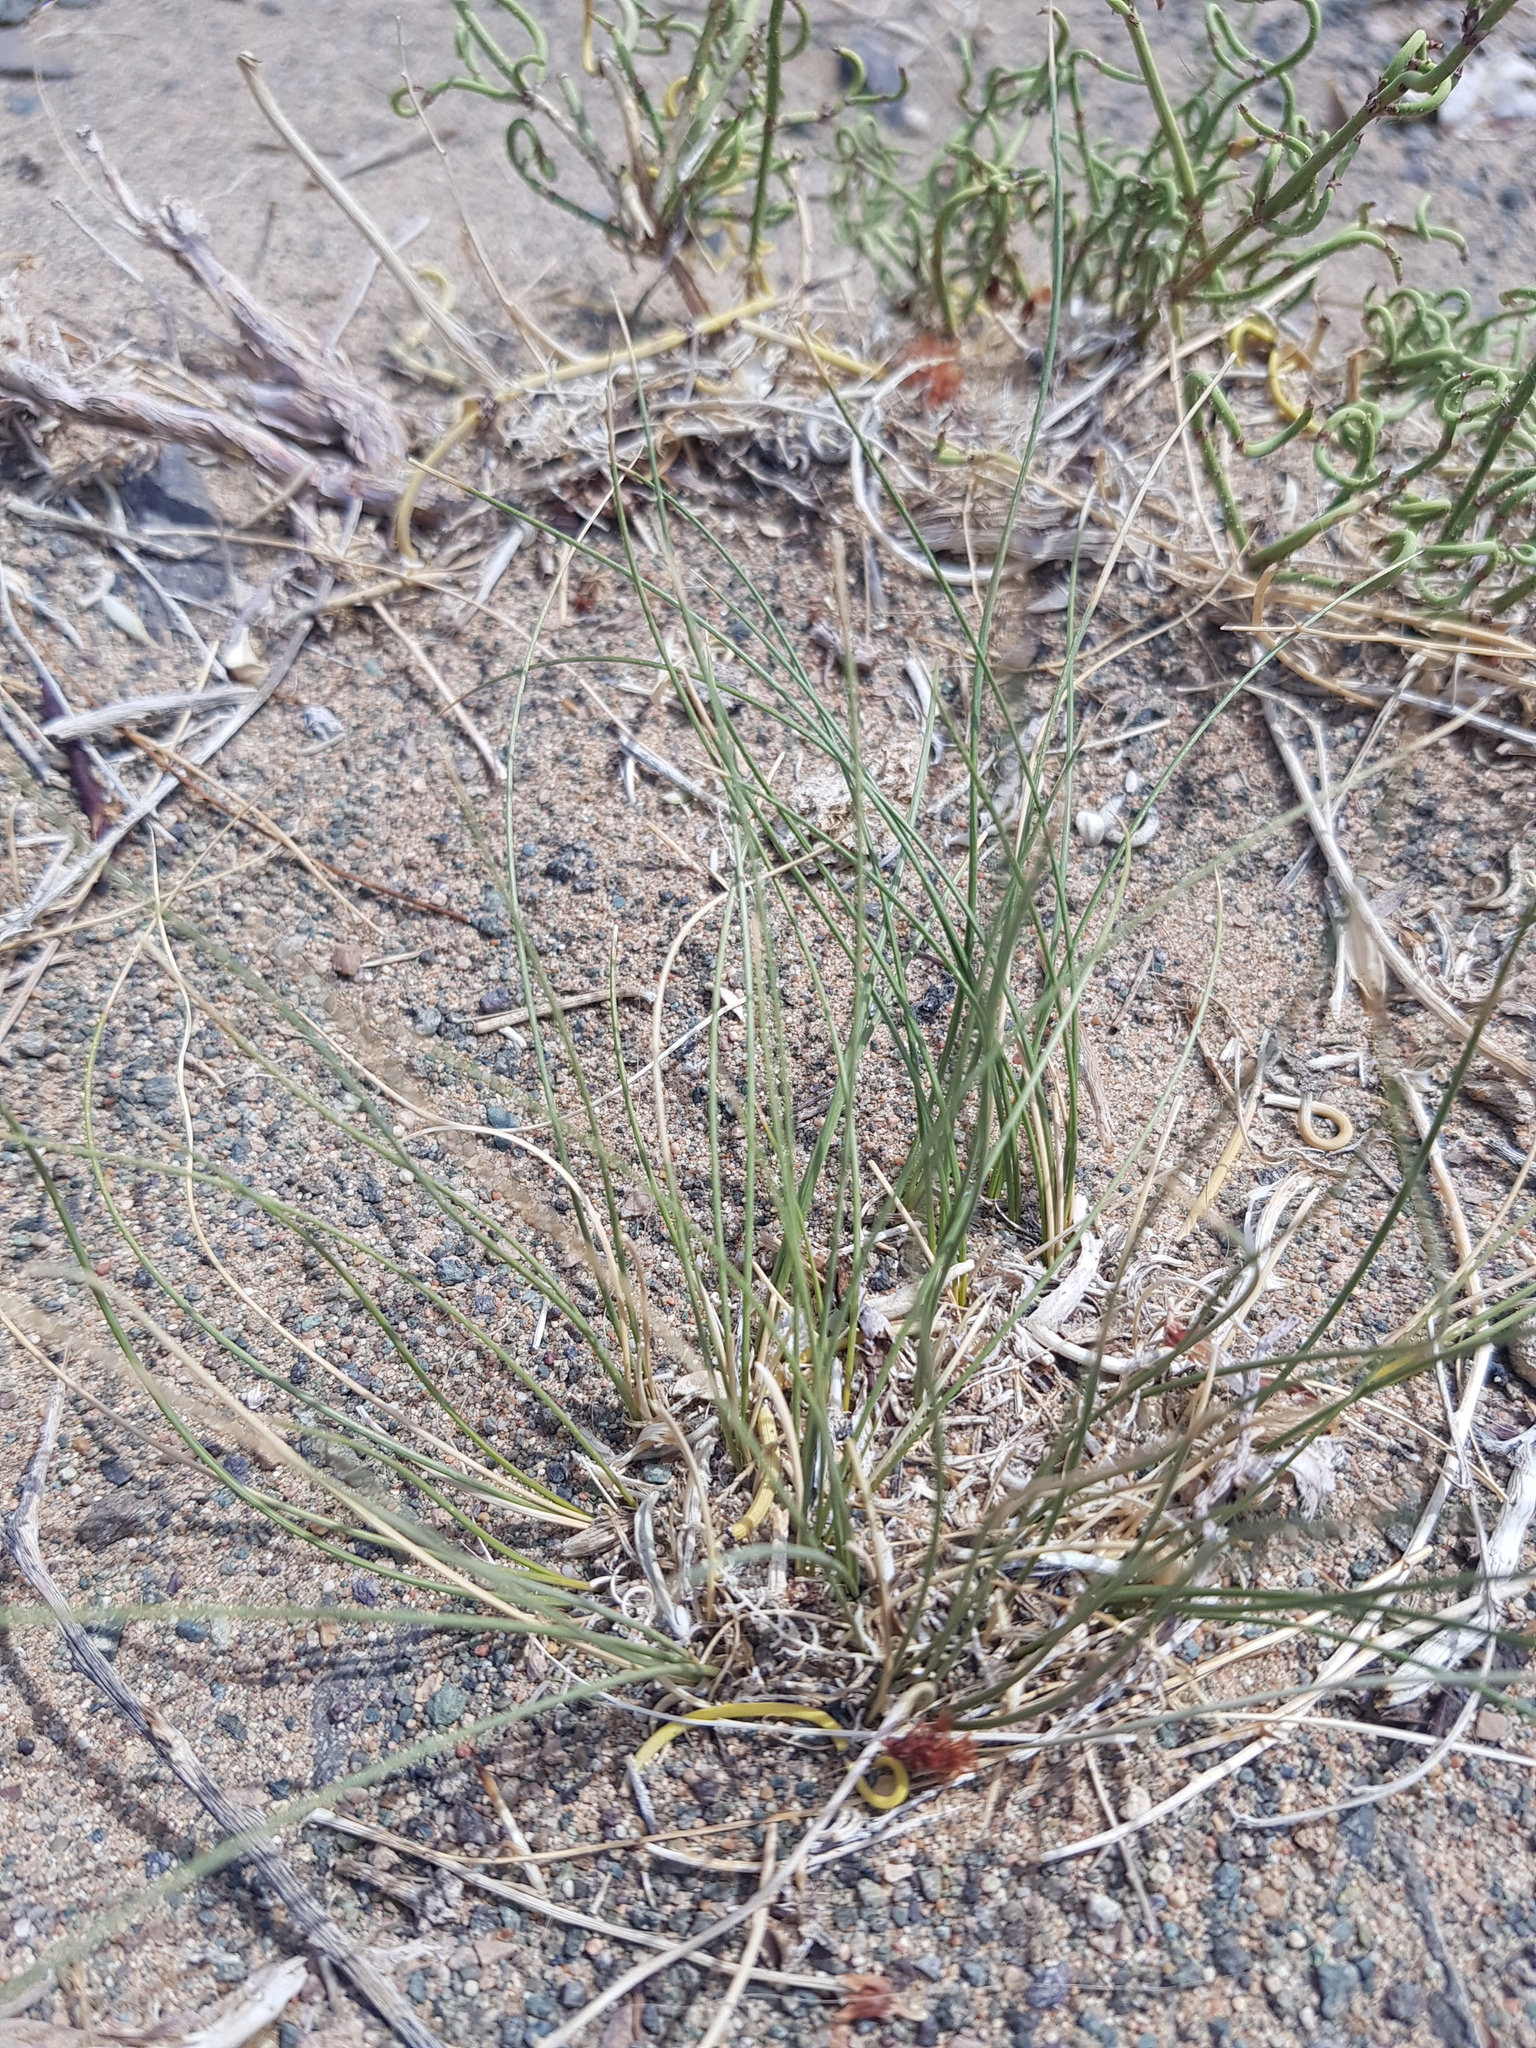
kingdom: Plantae
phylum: Tracheophyta
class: Liliopsida
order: Poales
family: Poaceae
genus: Stipa
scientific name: Stipa glareosa
